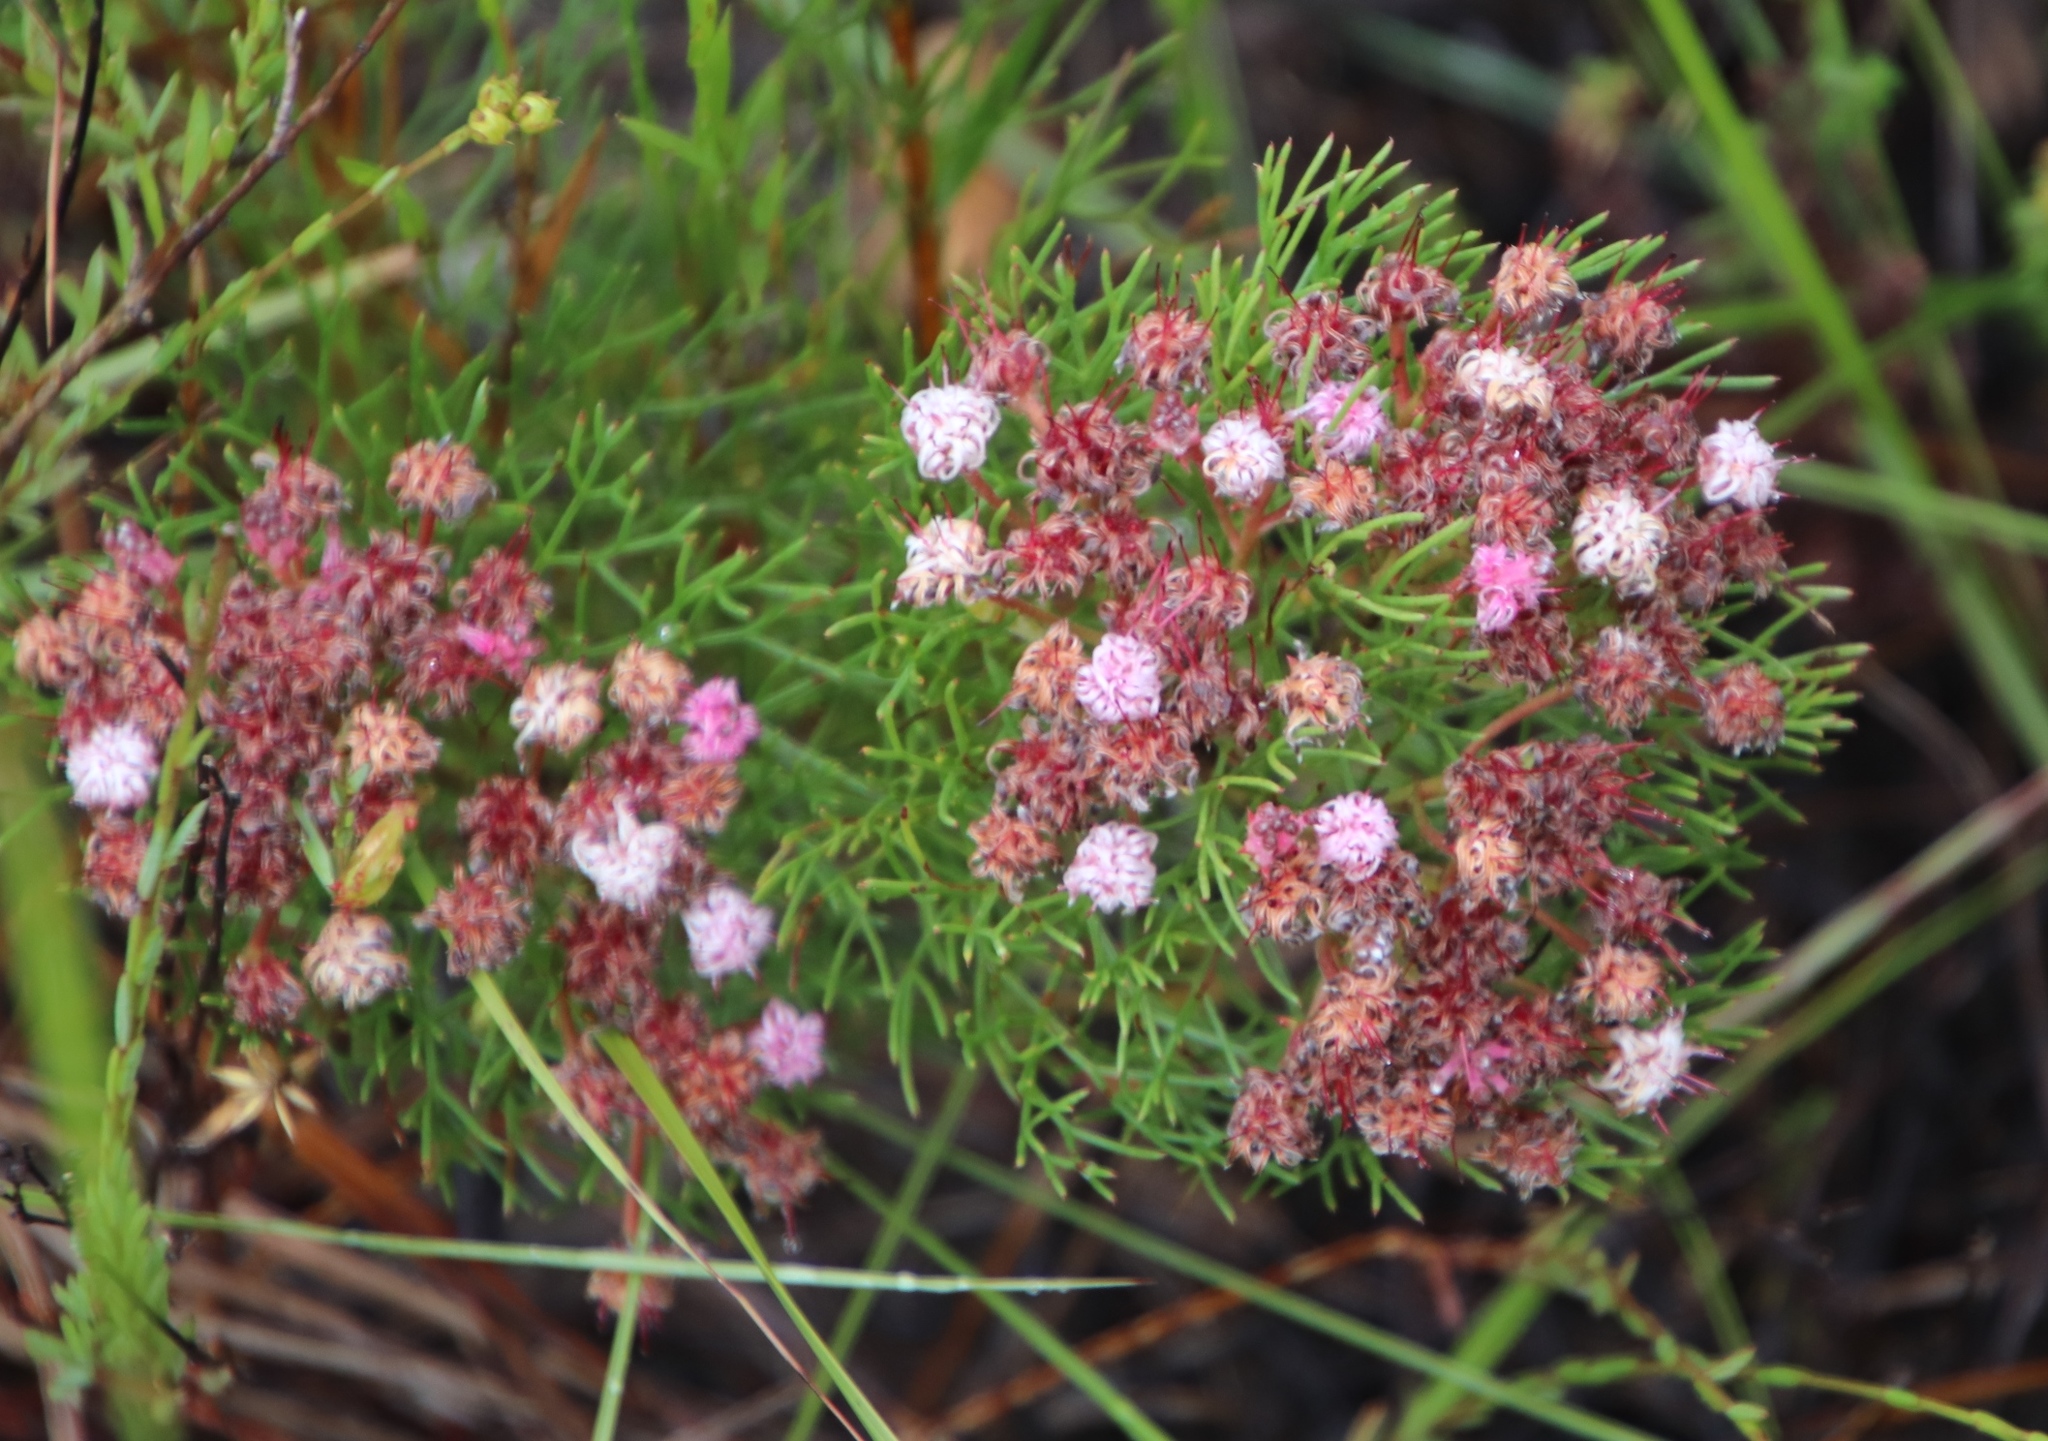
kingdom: Plantae
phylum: Tracheophyta
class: Magnoliopsida
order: Proteales
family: Proteaceae
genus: Serruria
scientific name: Serruria fasciflora
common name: Common pin spiderhead
